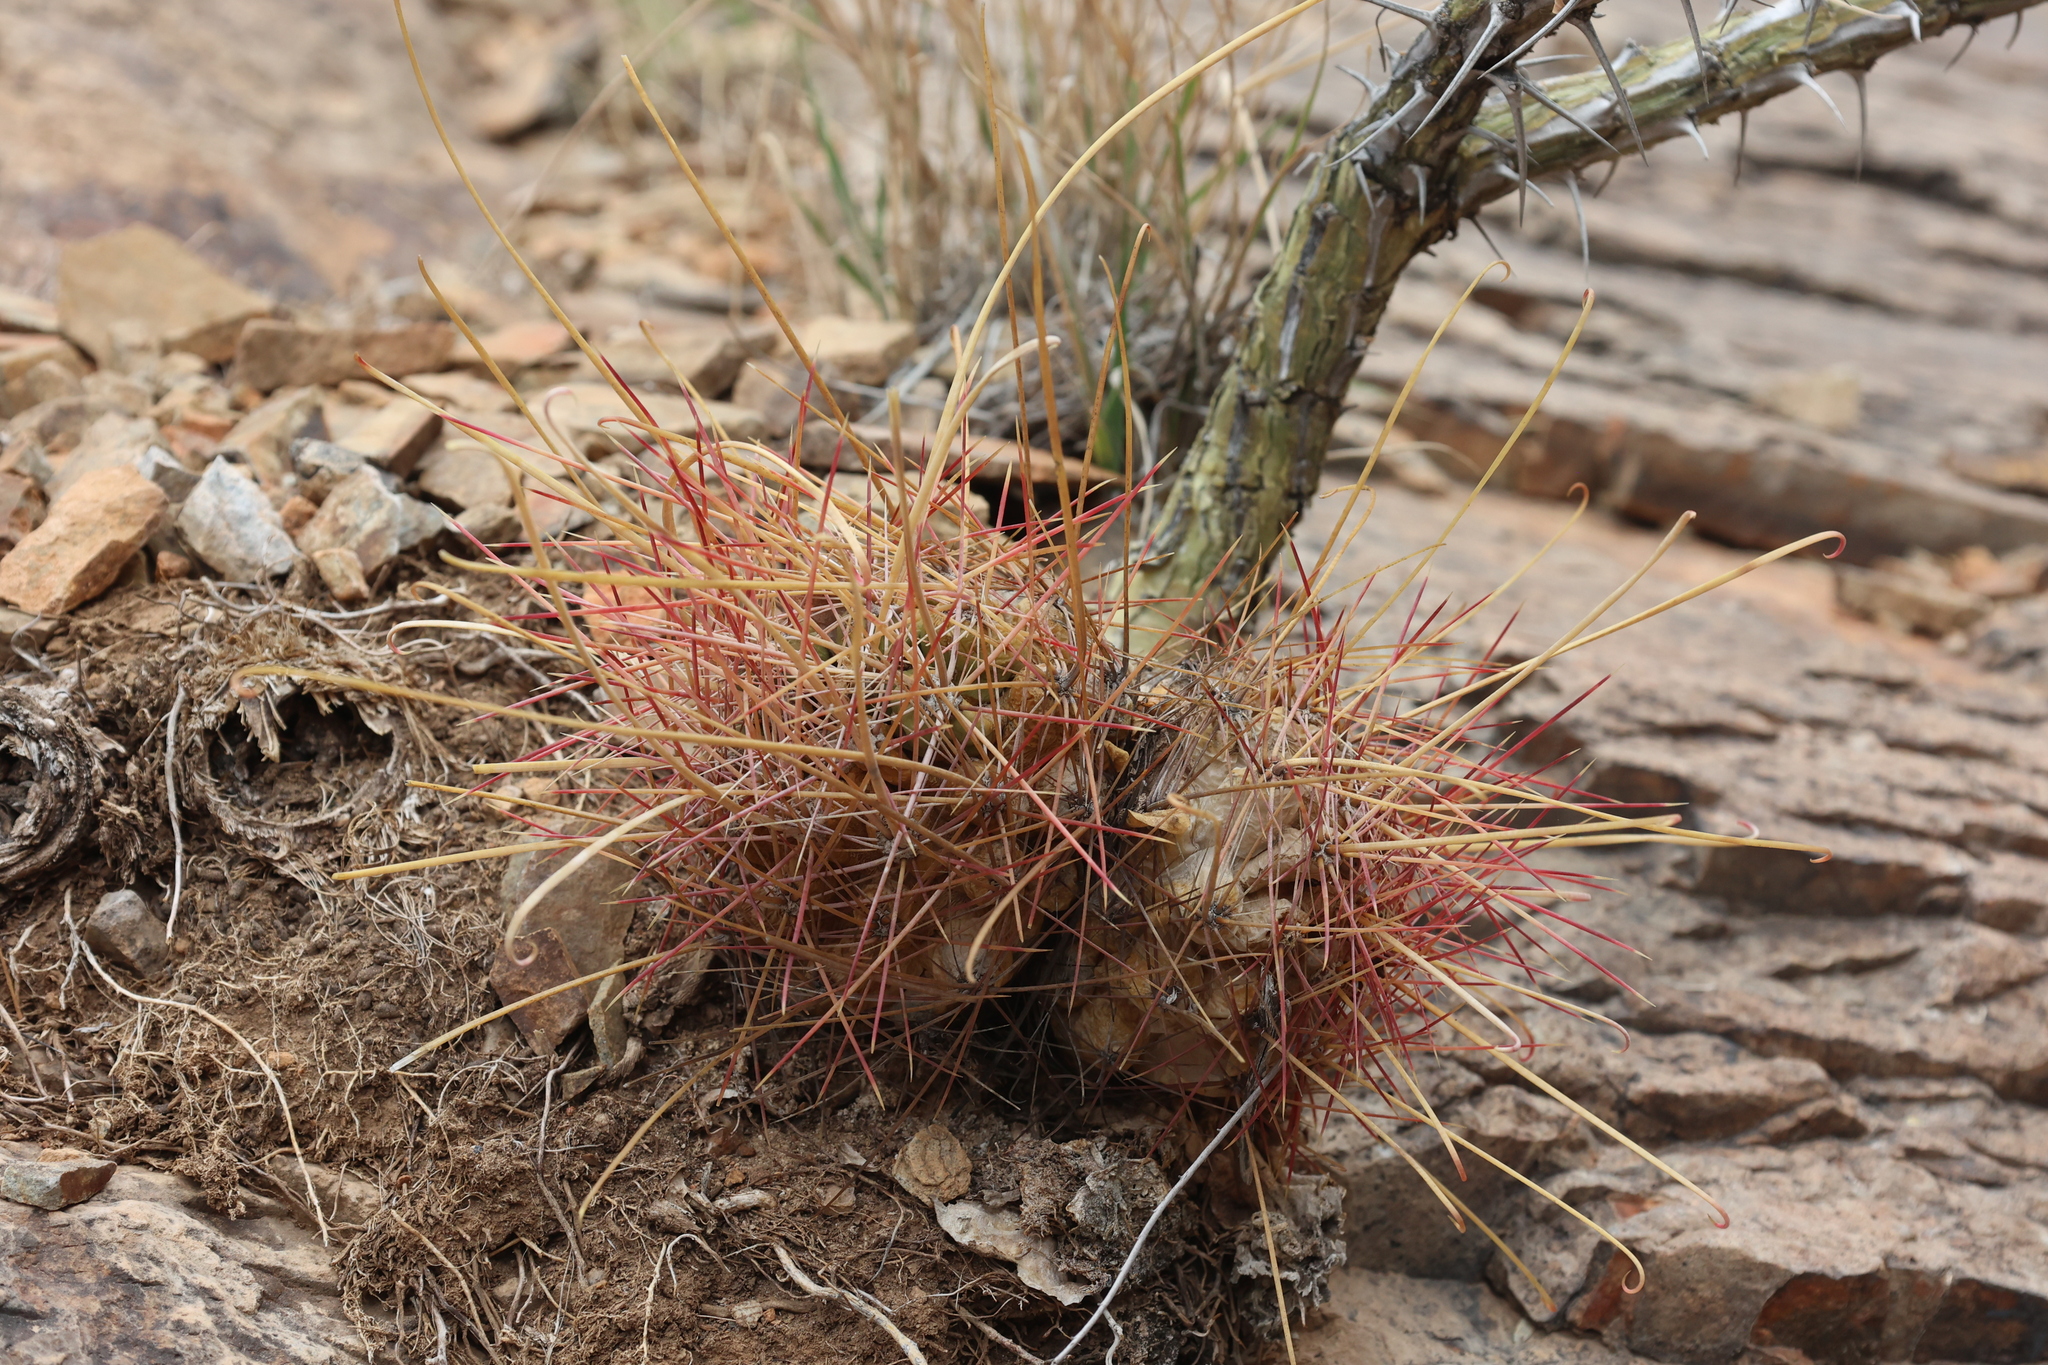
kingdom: Plantae
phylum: Tracheophyta
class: Magnoliopsida
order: Caryophyllales
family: Cactaceae
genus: Bisnaga
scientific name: Bisnaga hamatacantha
